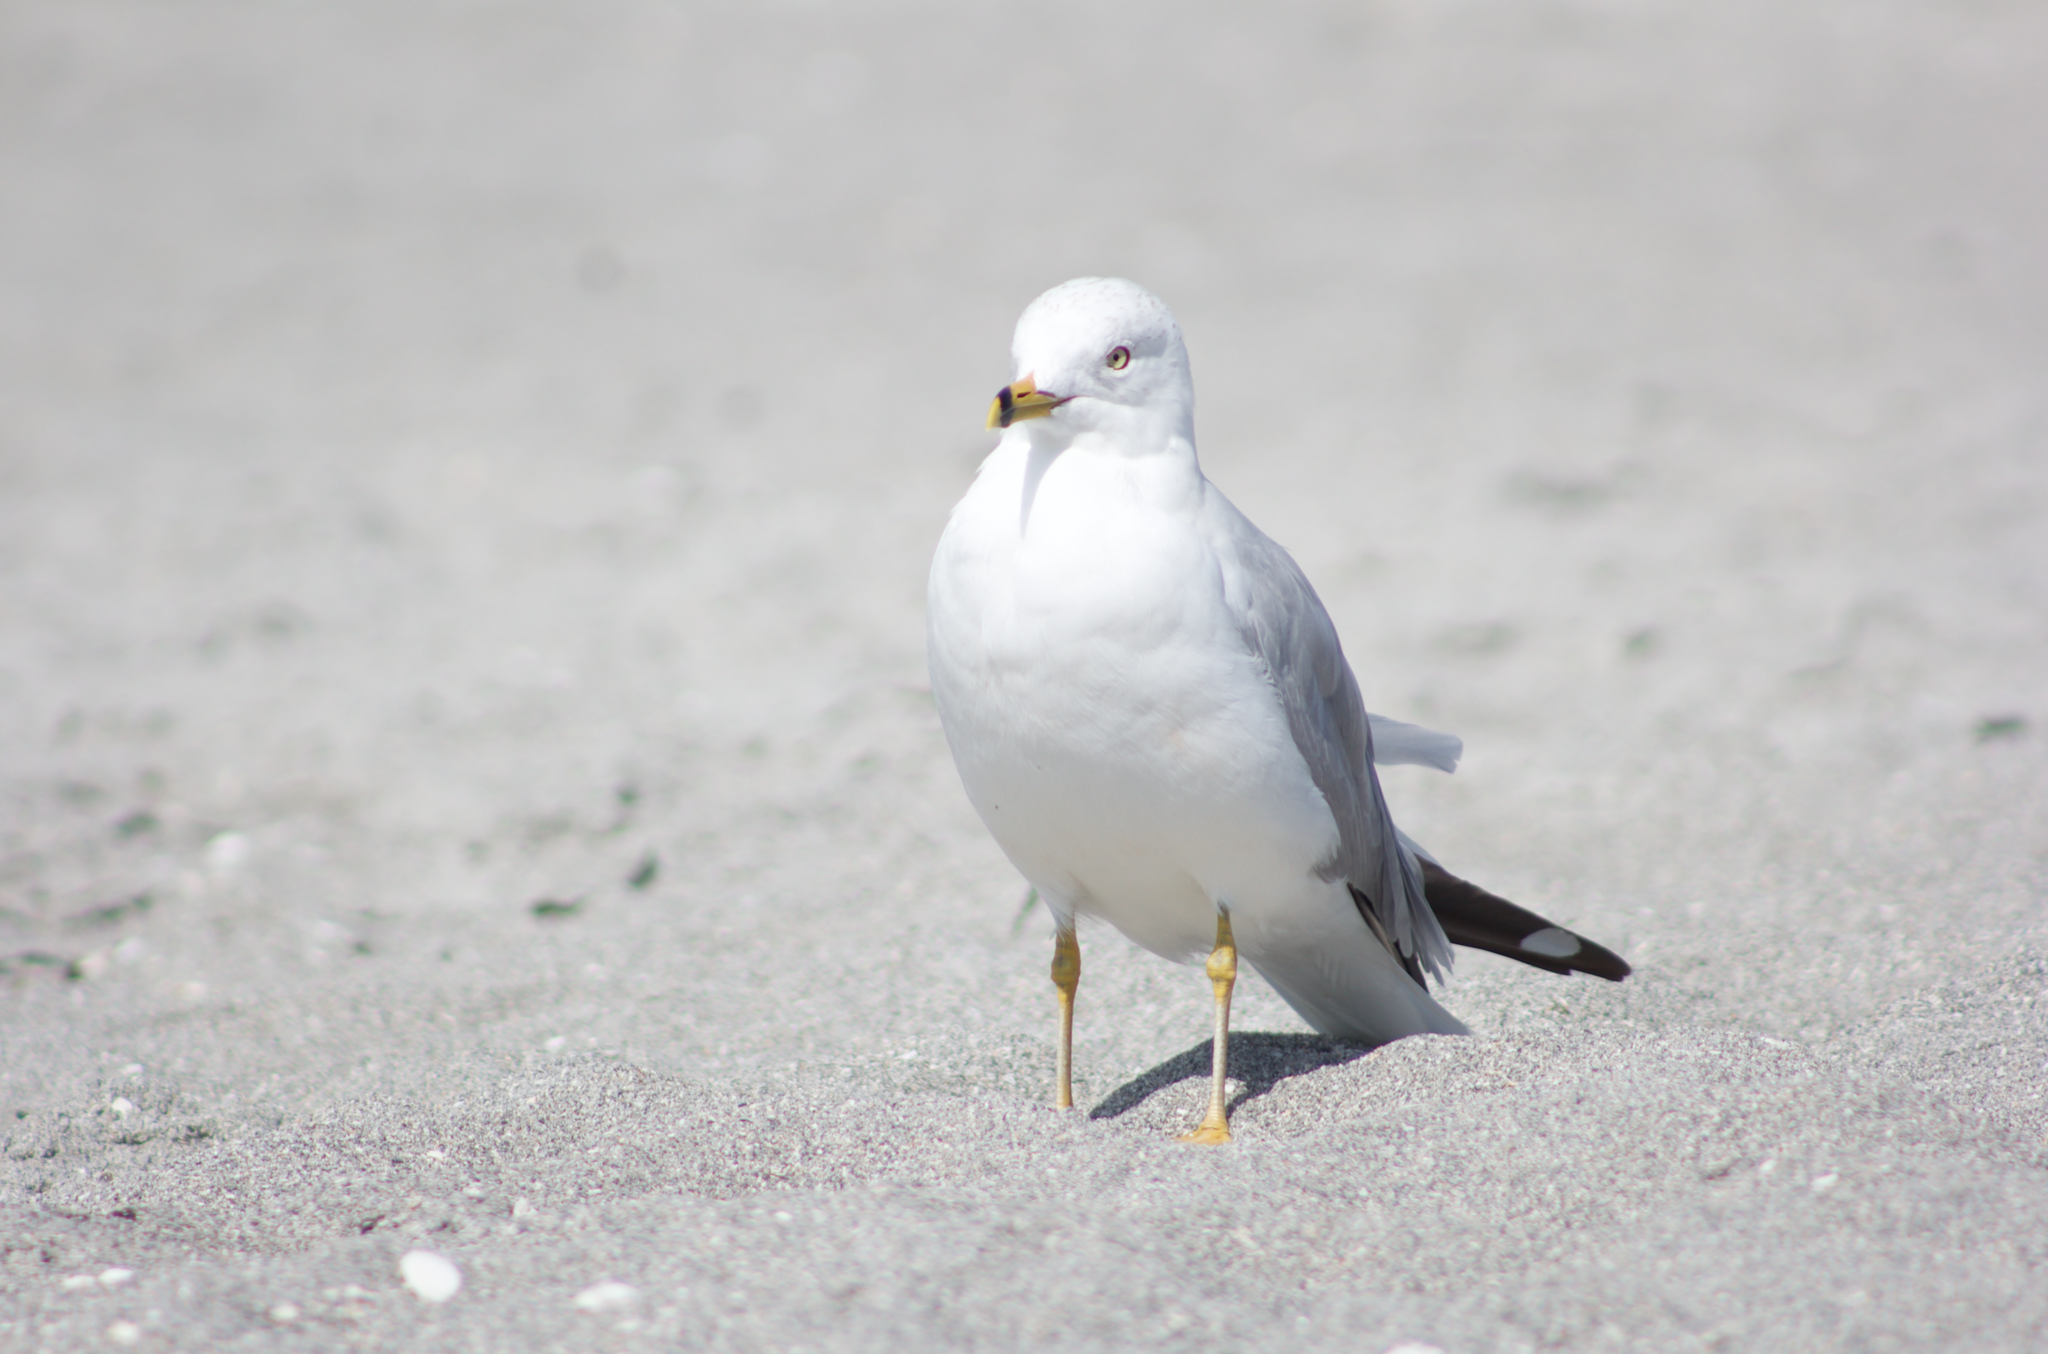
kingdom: Animalia
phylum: Chordata
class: Aves
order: Charadriiformes
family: Laridae
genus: Larus
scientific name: Larus delawarensis
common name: Ring-billed gull
